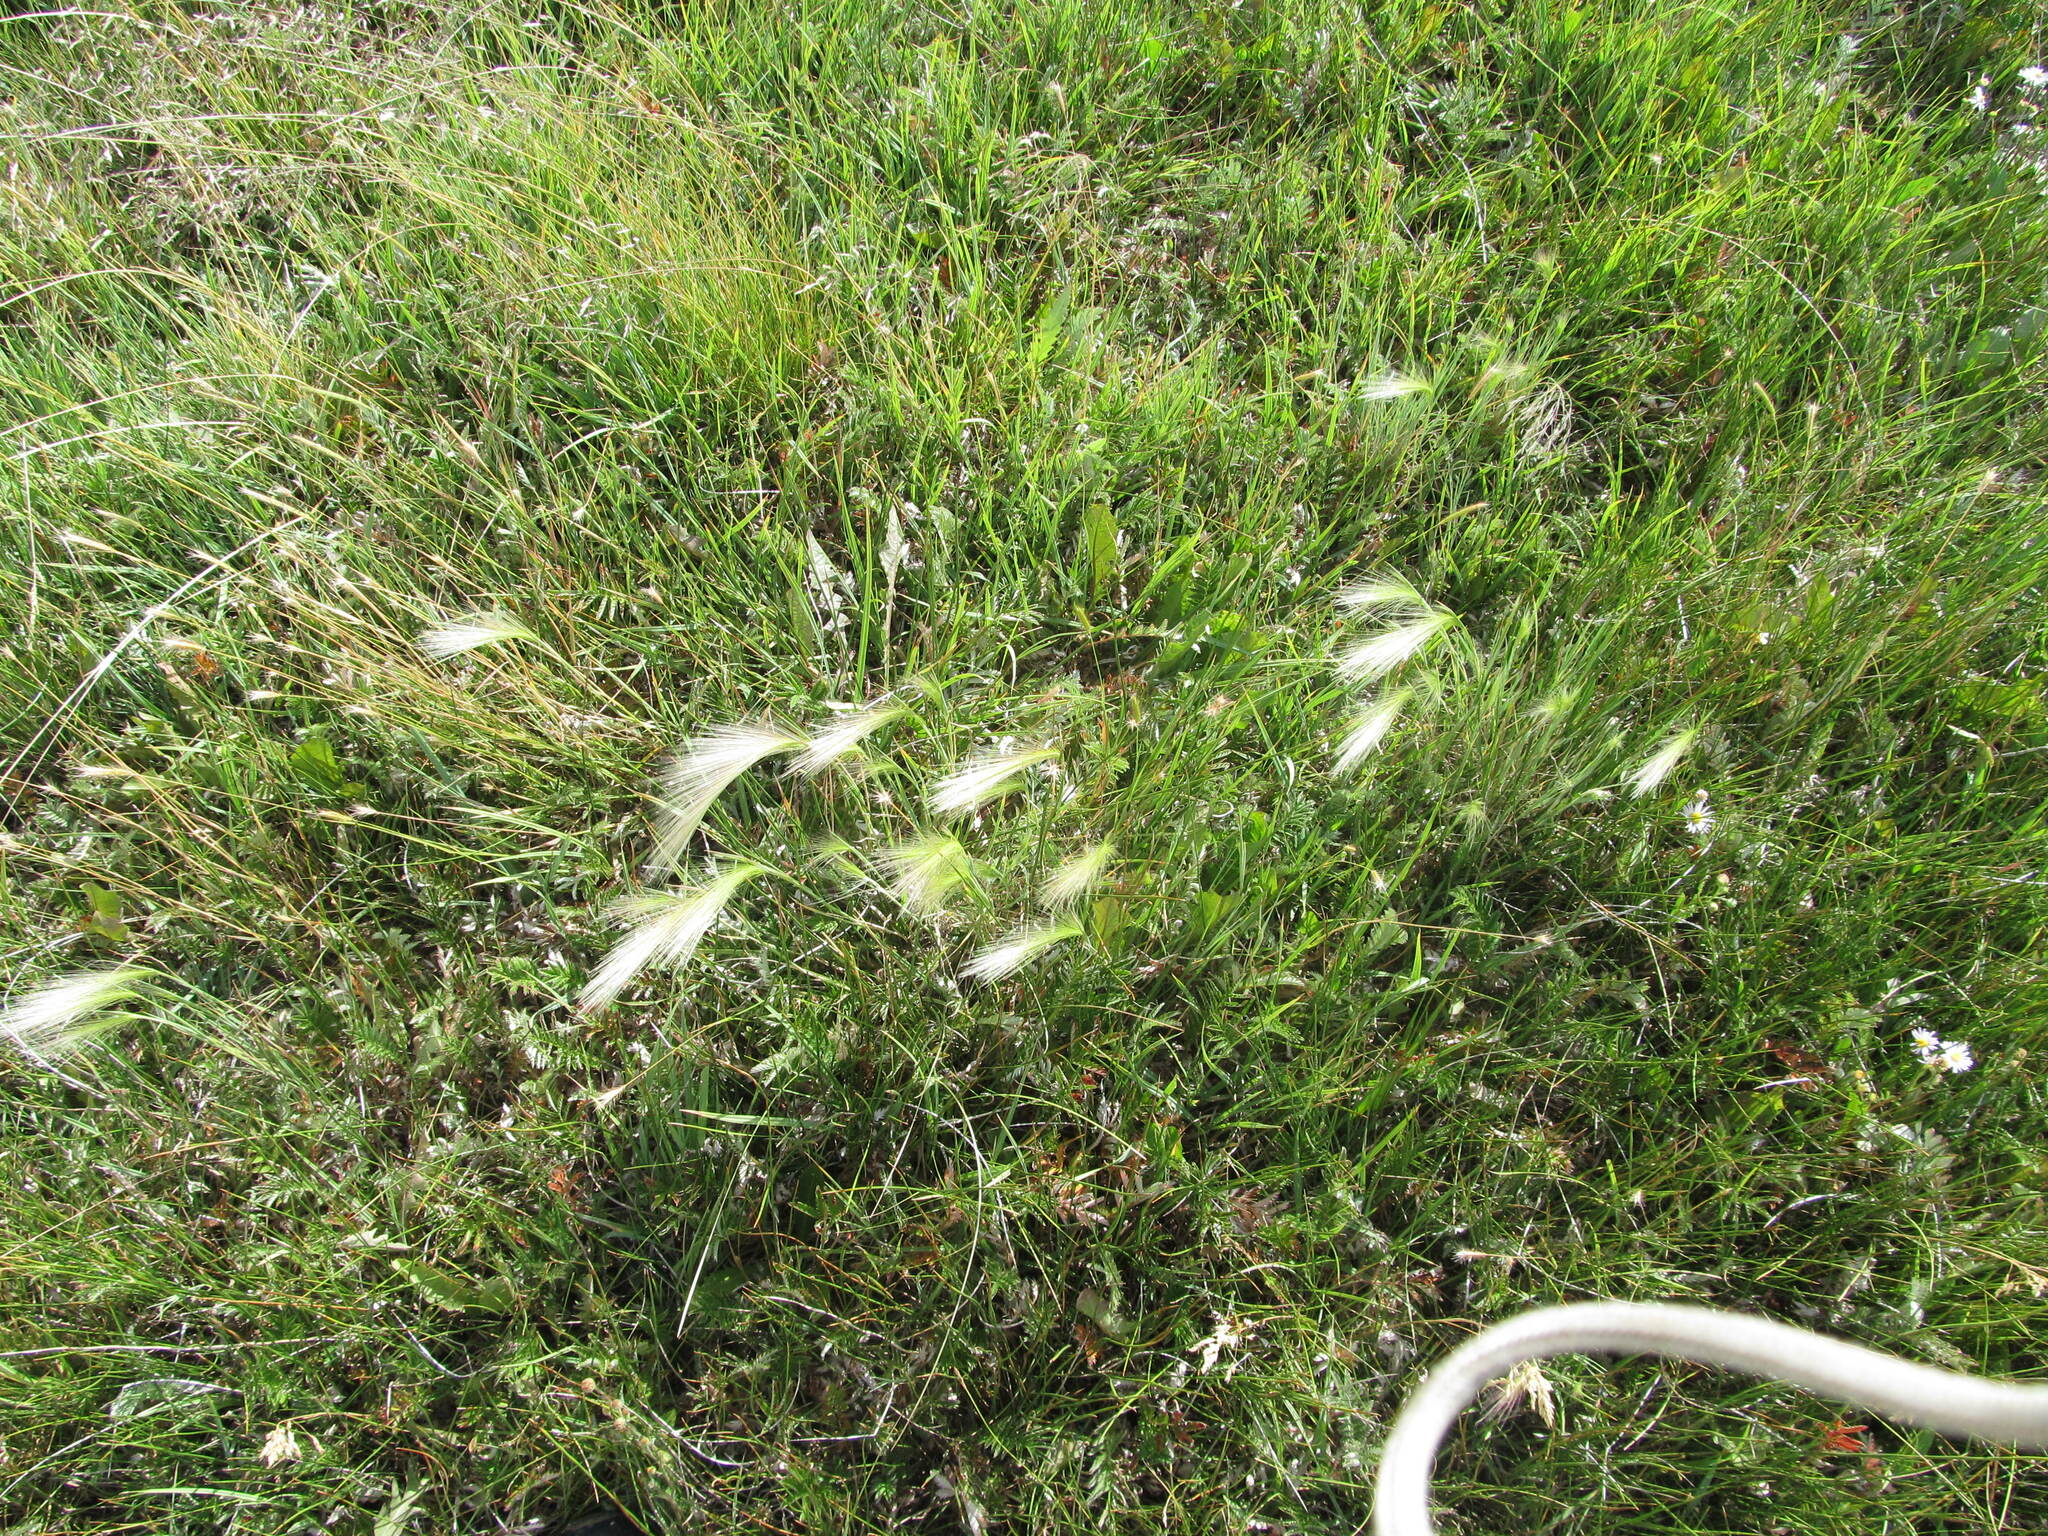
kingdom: Plantae
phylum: Tracheophyta
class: Liliopsida
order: Poales
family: Poaceae
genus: Hordeum
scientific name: Hordeum jubatum
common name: Foxtail barley
